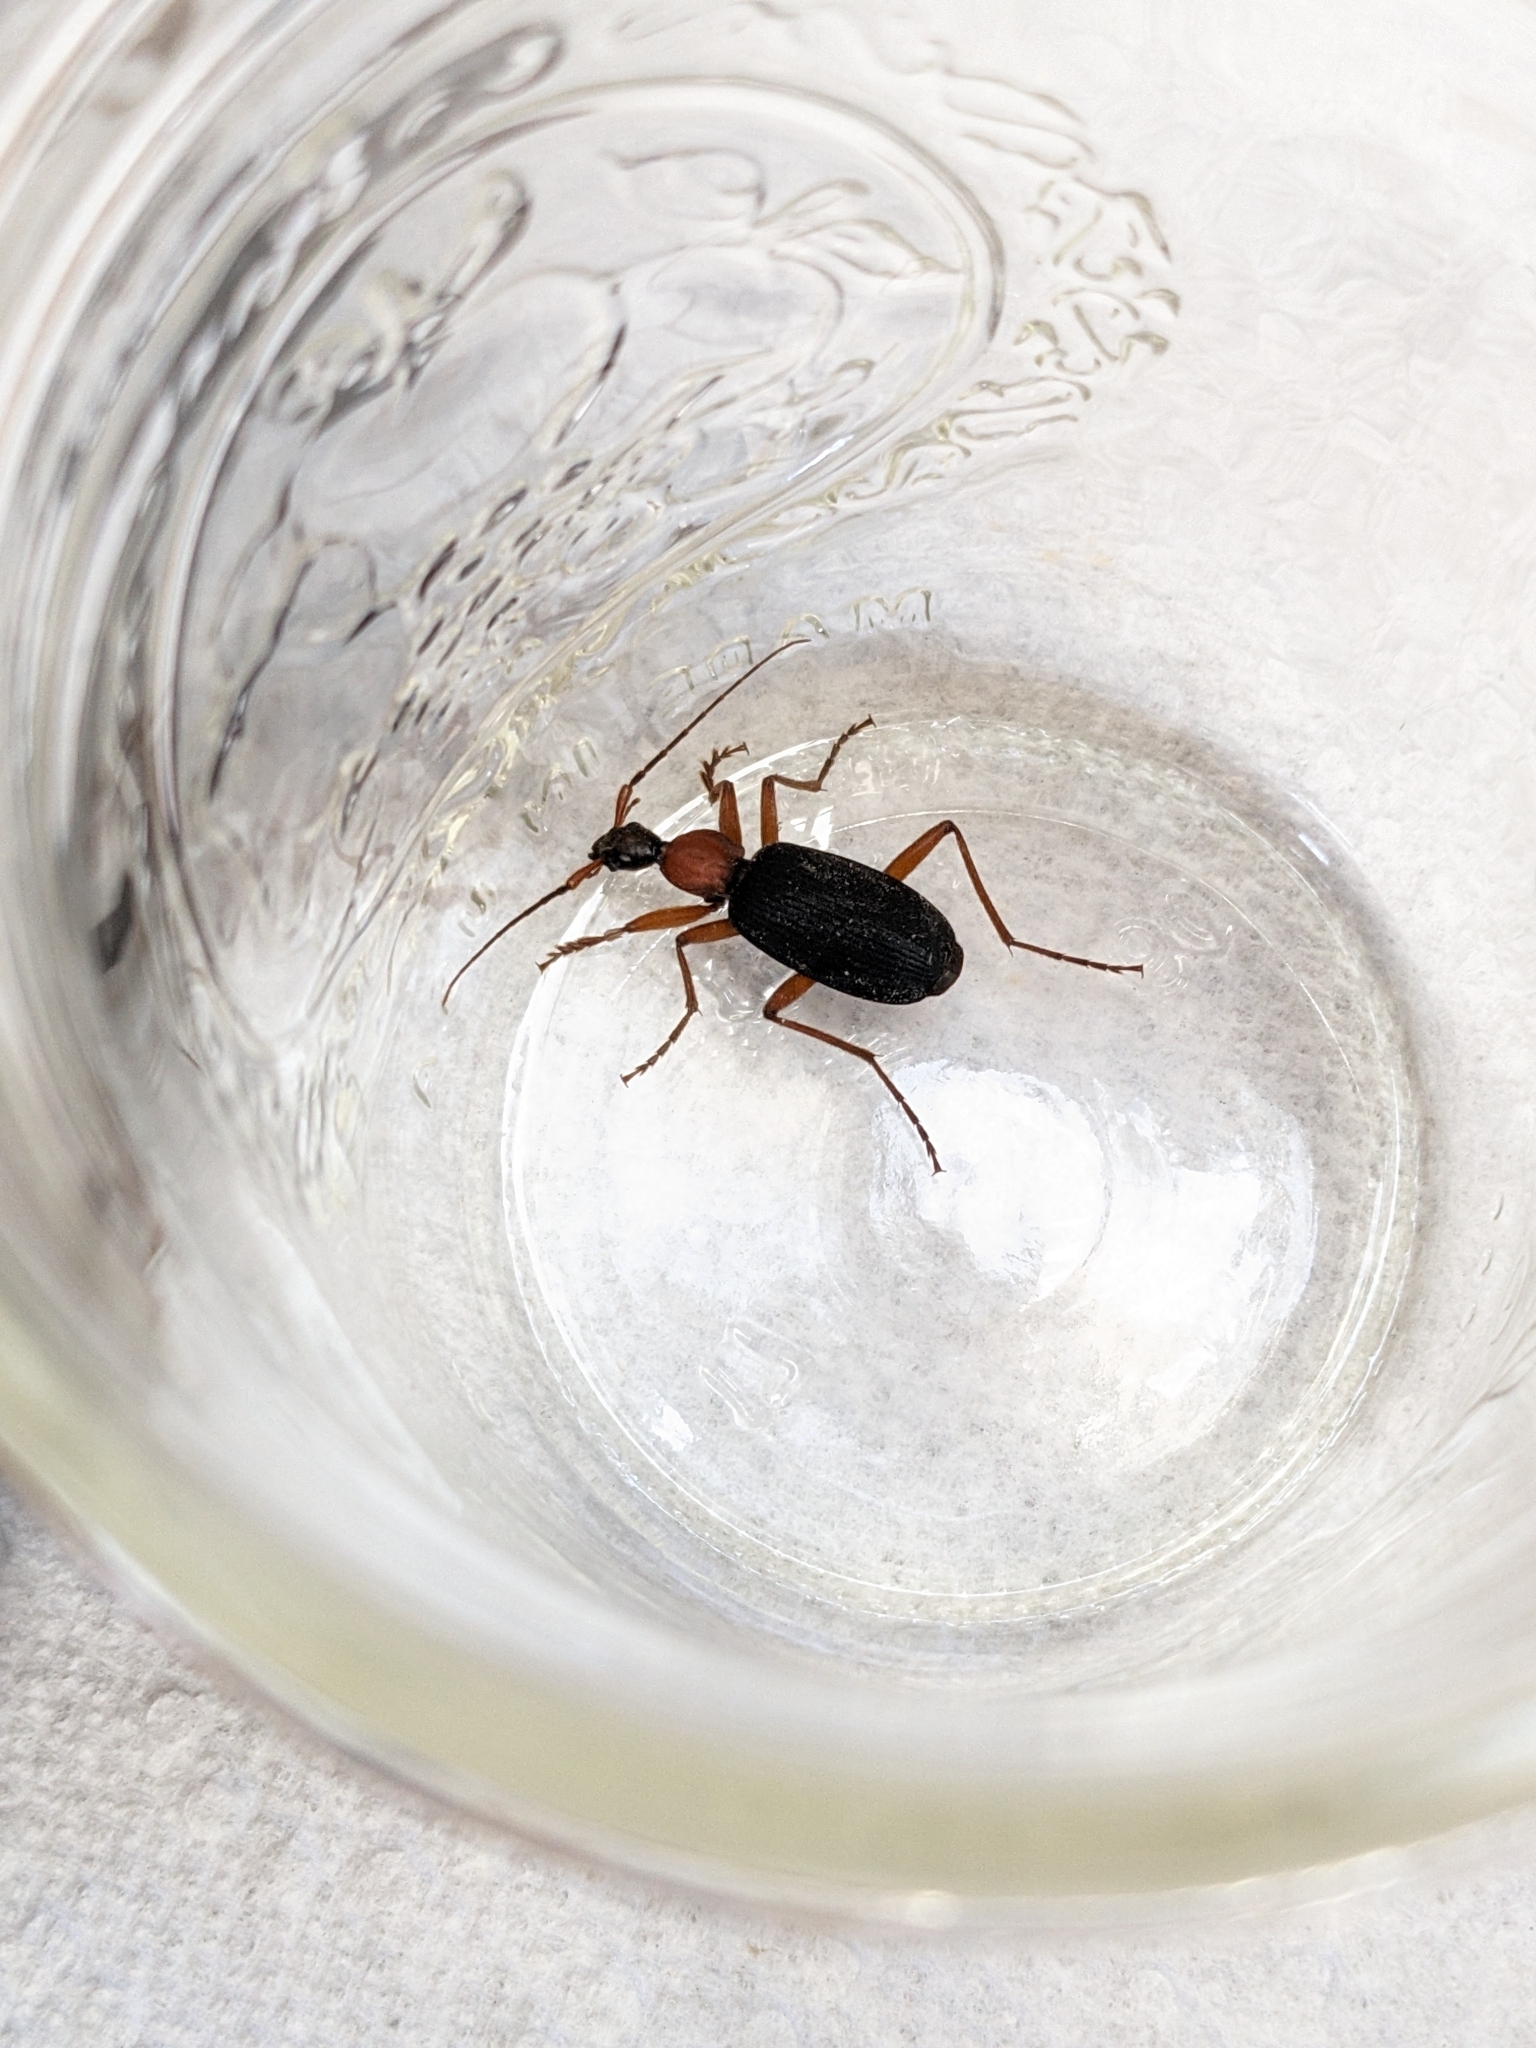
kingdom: Animalia
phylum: Arthropoda
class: Insecta
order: Coleoptera
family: Carabidae
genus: Galerita
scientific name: Galerita bicolor
